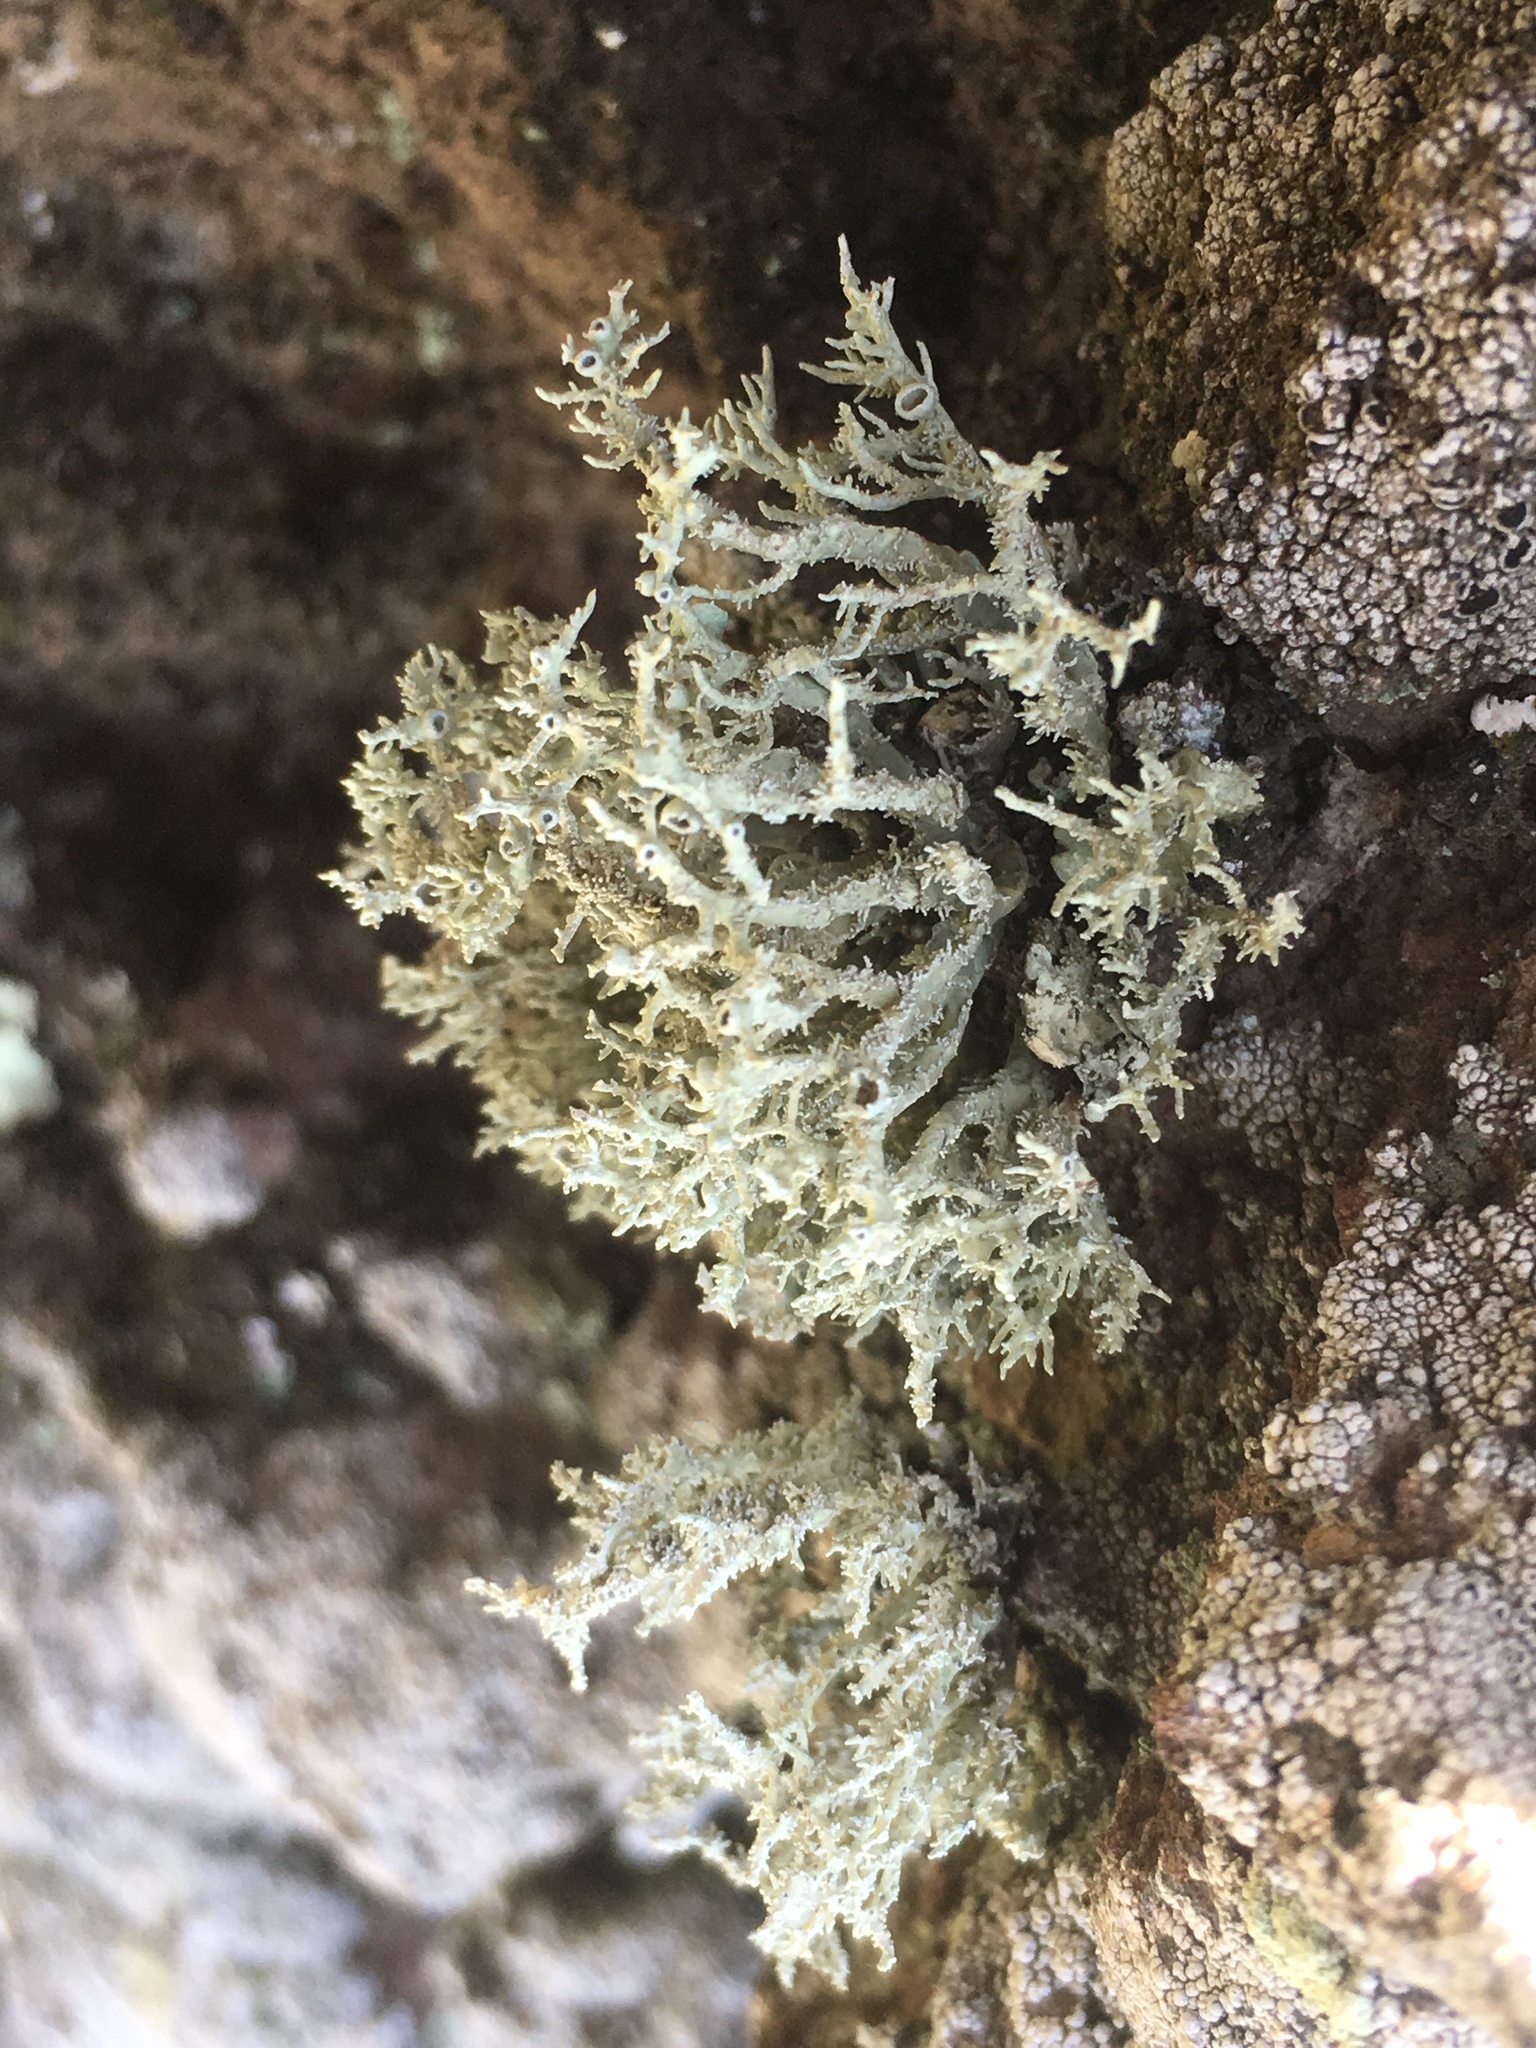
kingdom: Fungi
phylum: Ascomycota
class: Lecanoromycetes
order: Lecanorales
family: Ramalinaceae
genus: Niebla
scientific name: Niebla isidiaescens
